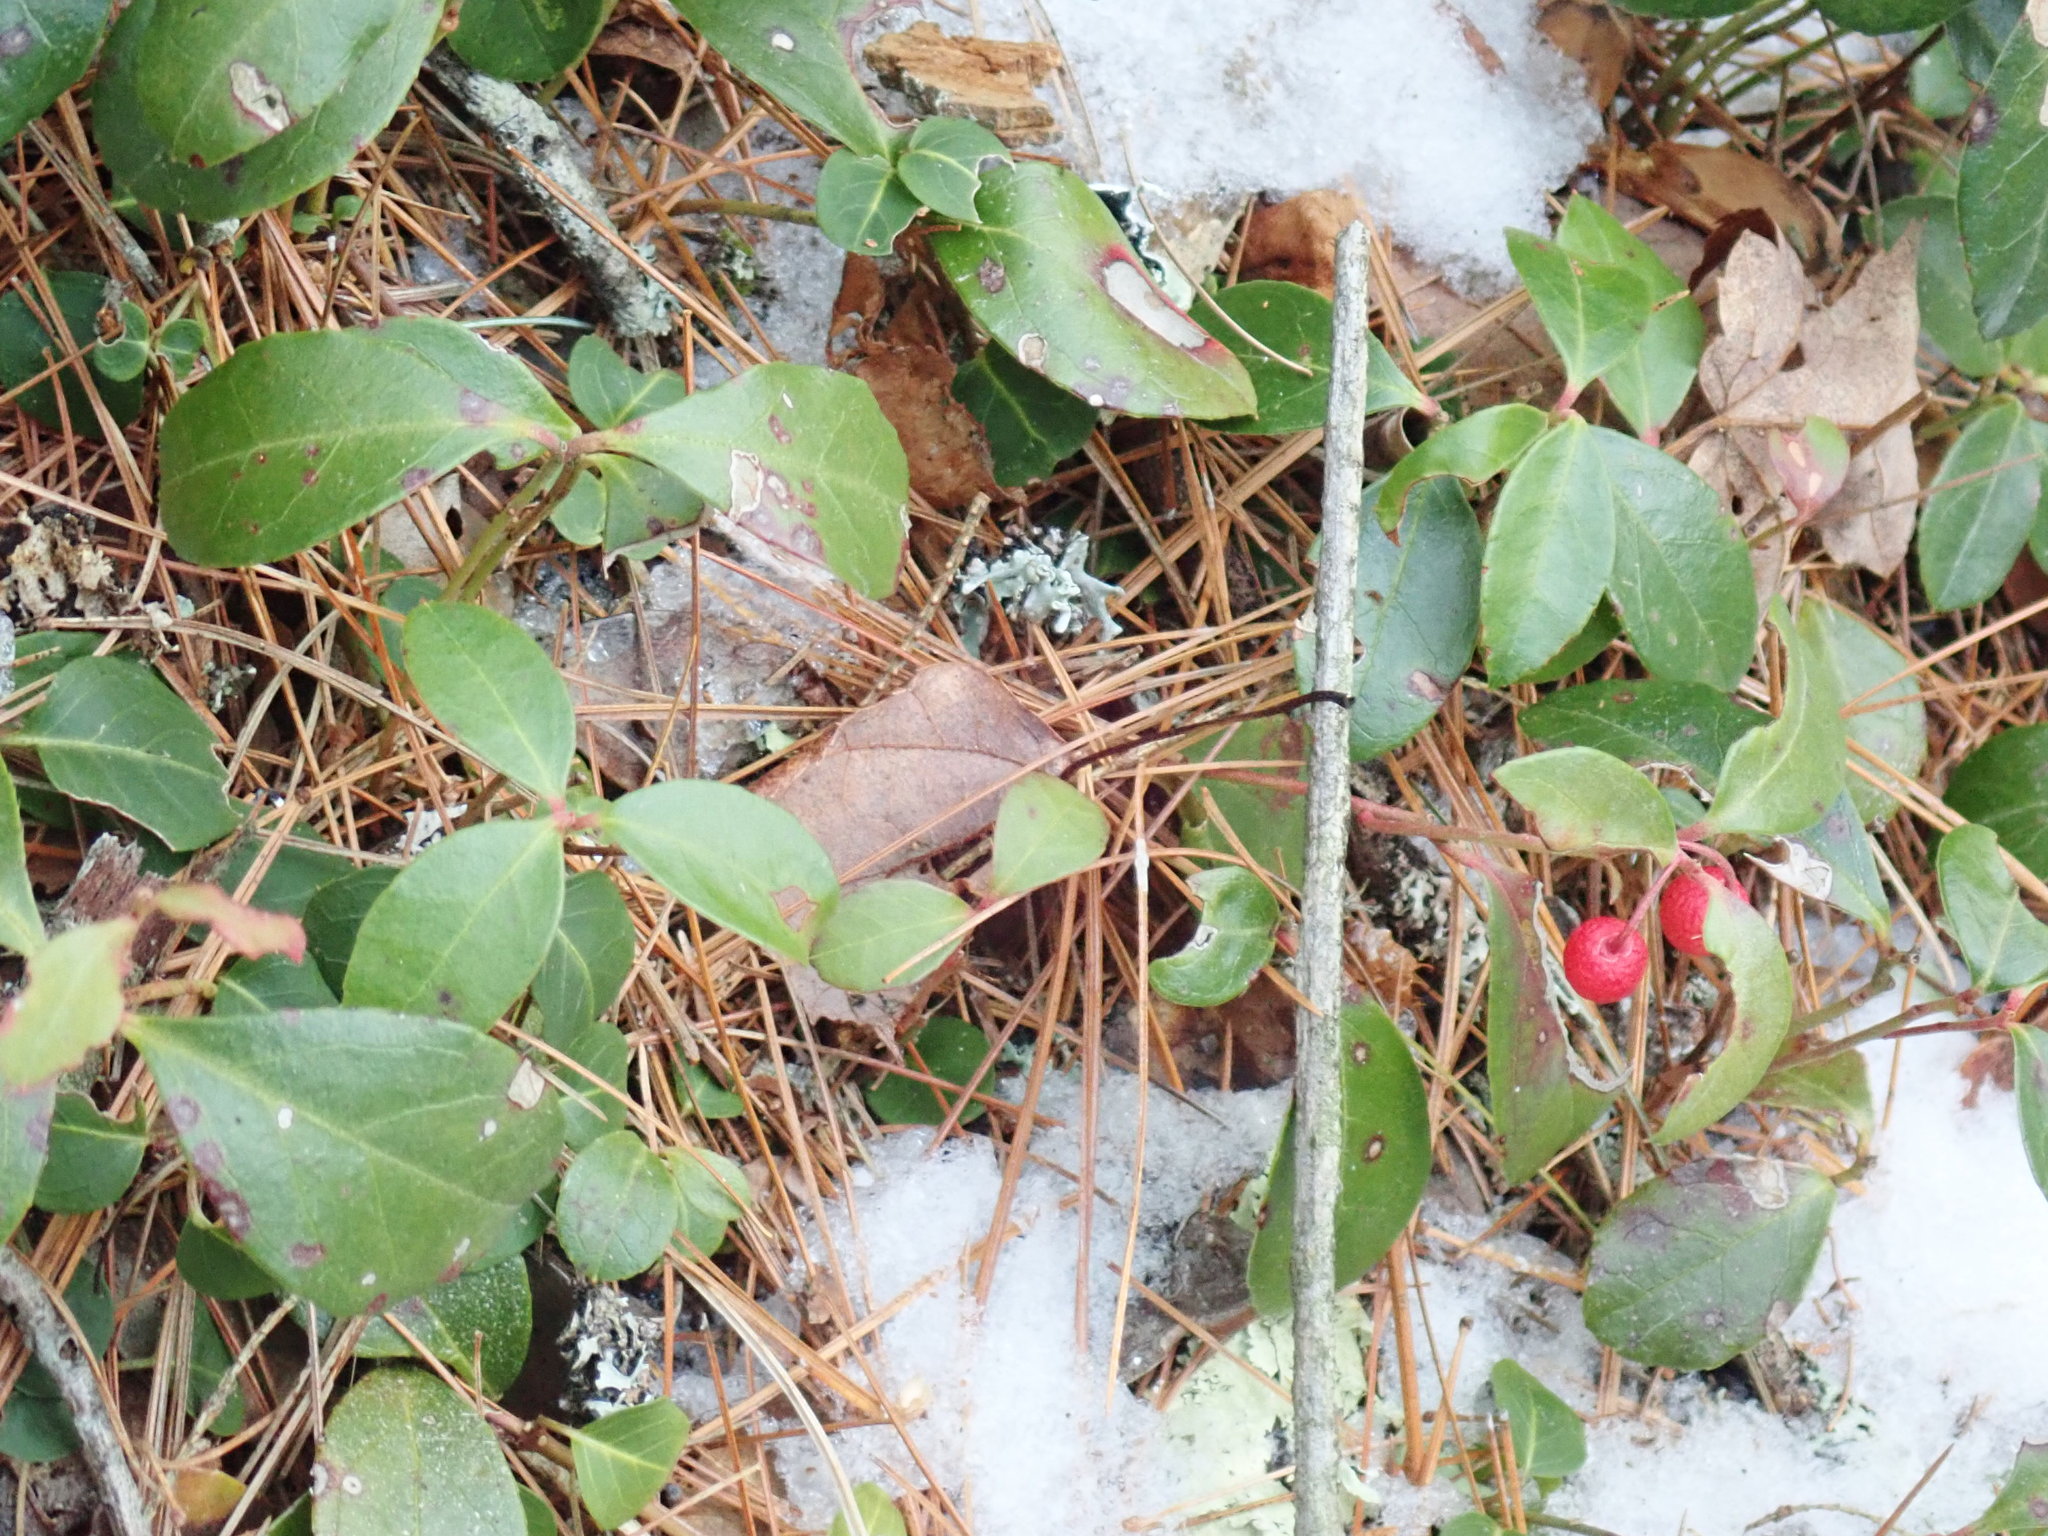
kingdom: Plantae
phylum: Tracheophyta
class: Magnoliopsida
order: Ericales
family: Ericaceae
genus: Gaultheria
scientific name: Gaultheria procumbens
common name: Checkerberry
